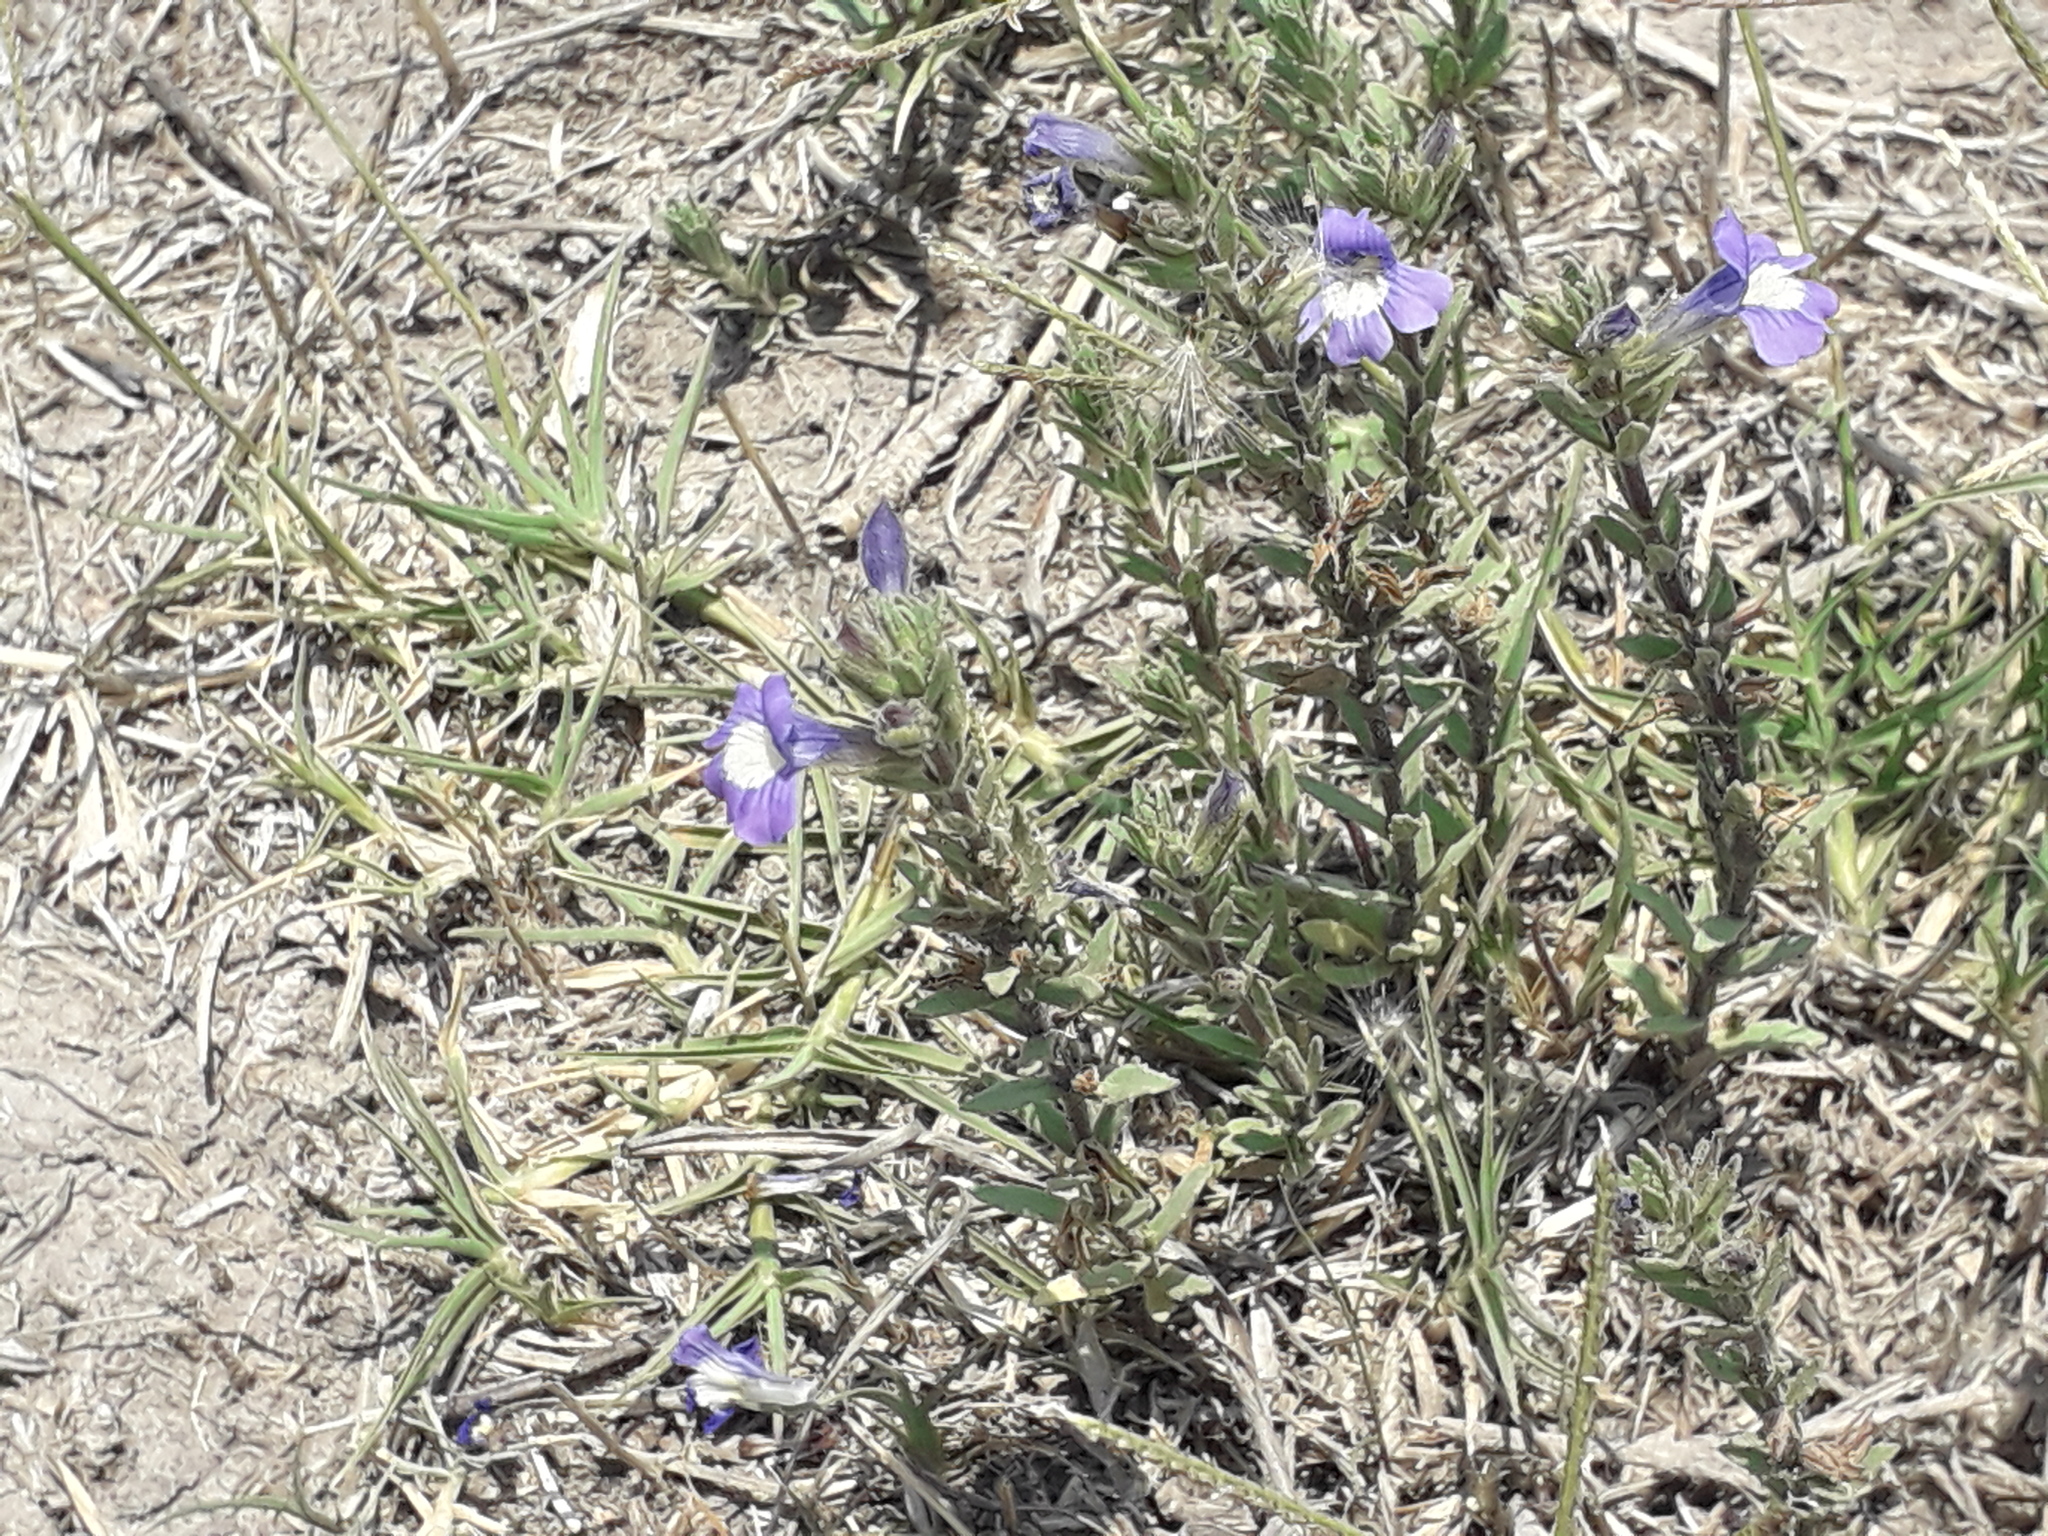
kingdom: Plantae
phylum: Tracheophyta
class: Magnoliopsida
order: Lamiales
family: Plantaginaceae
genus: Stemodia
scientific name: Stemodia durantifolia
